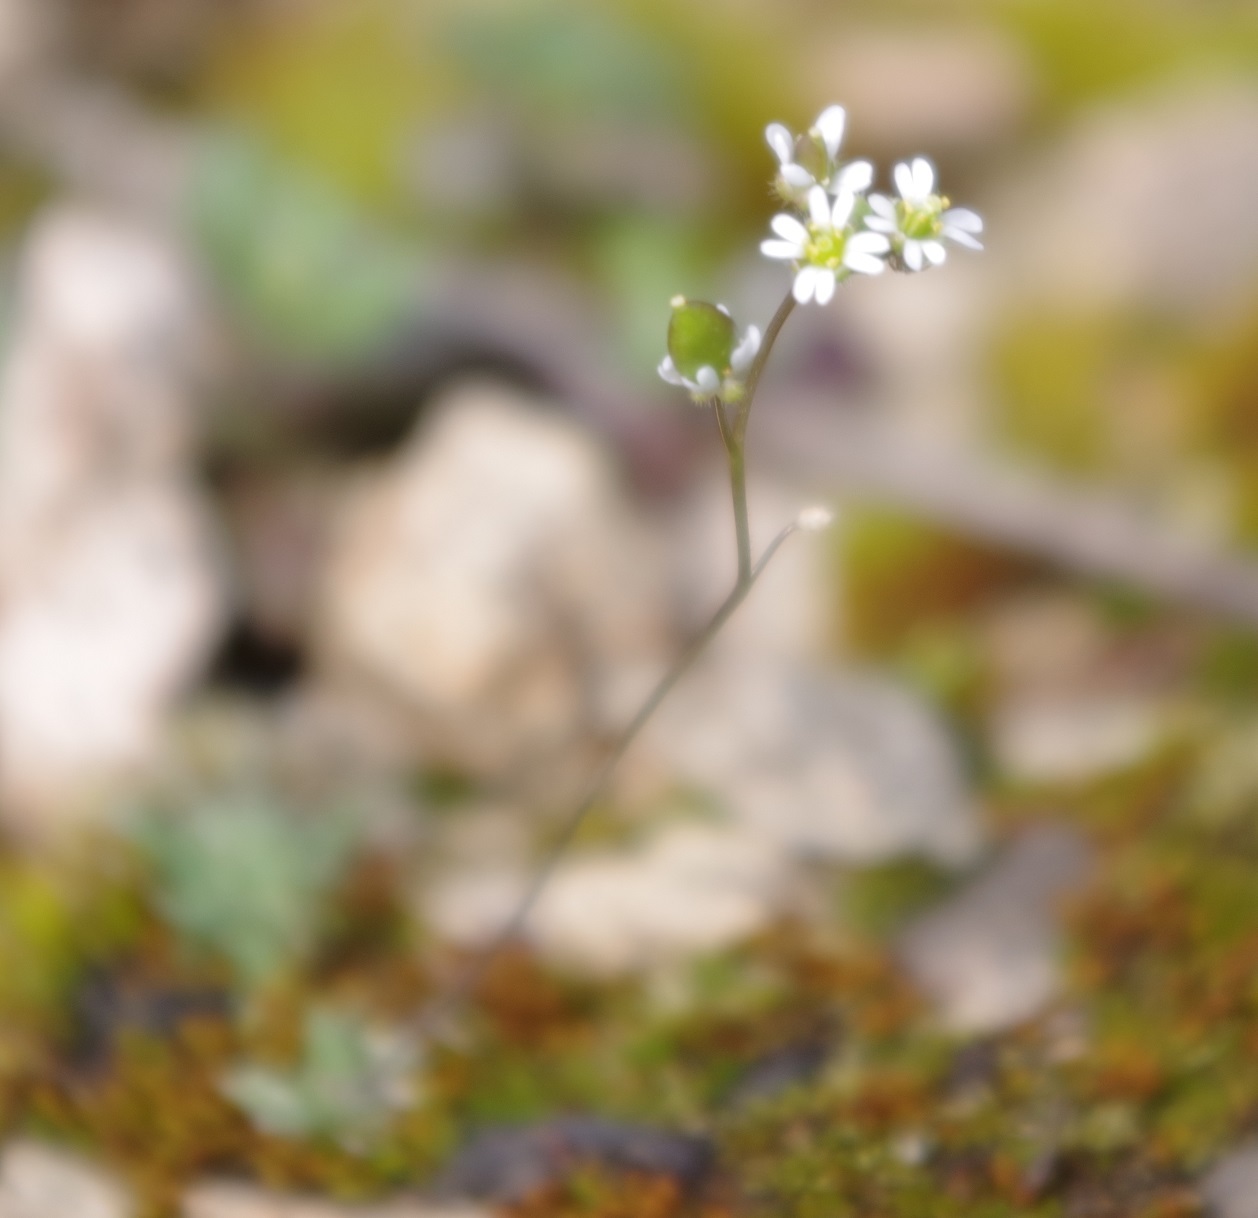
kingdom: Plantae
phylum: Tracheophyta
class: Magnoliopsida
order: Brassicales
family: Brassicaceae
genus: Draba
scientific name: Draba verna
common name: Spring draba
